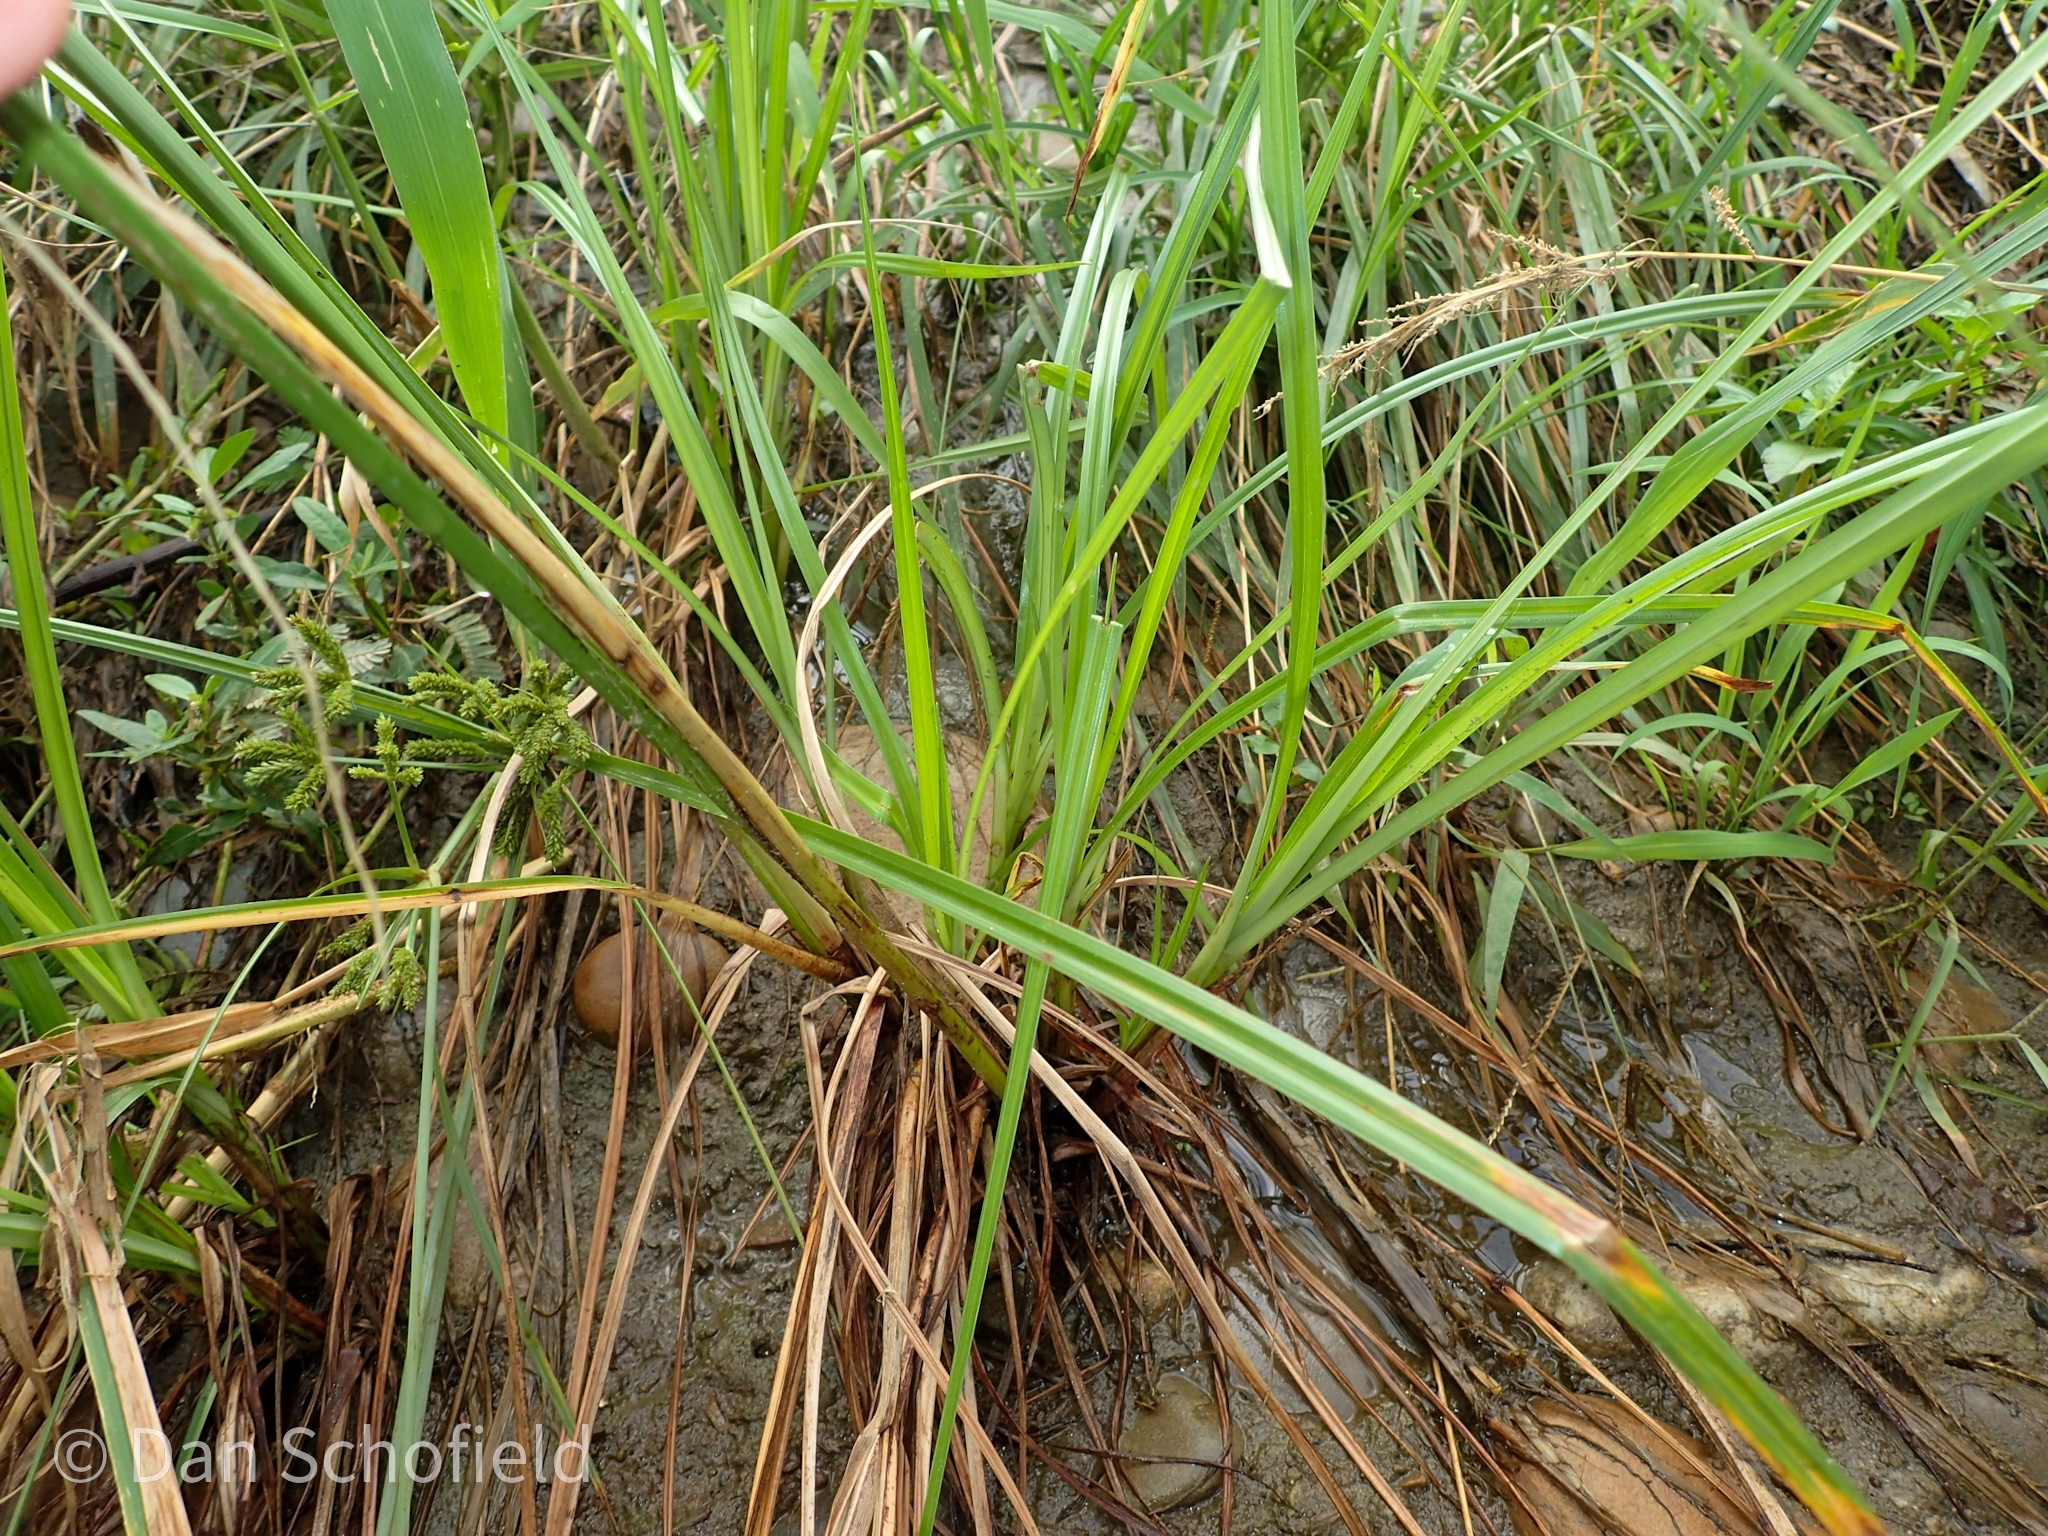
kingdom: Plantae
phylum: Tracheophyta
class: Liliopsida
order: Poales
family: Cyperaceae
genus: Cyperus
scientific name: Cyperus imbricatus
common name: Shingle flatsedge
